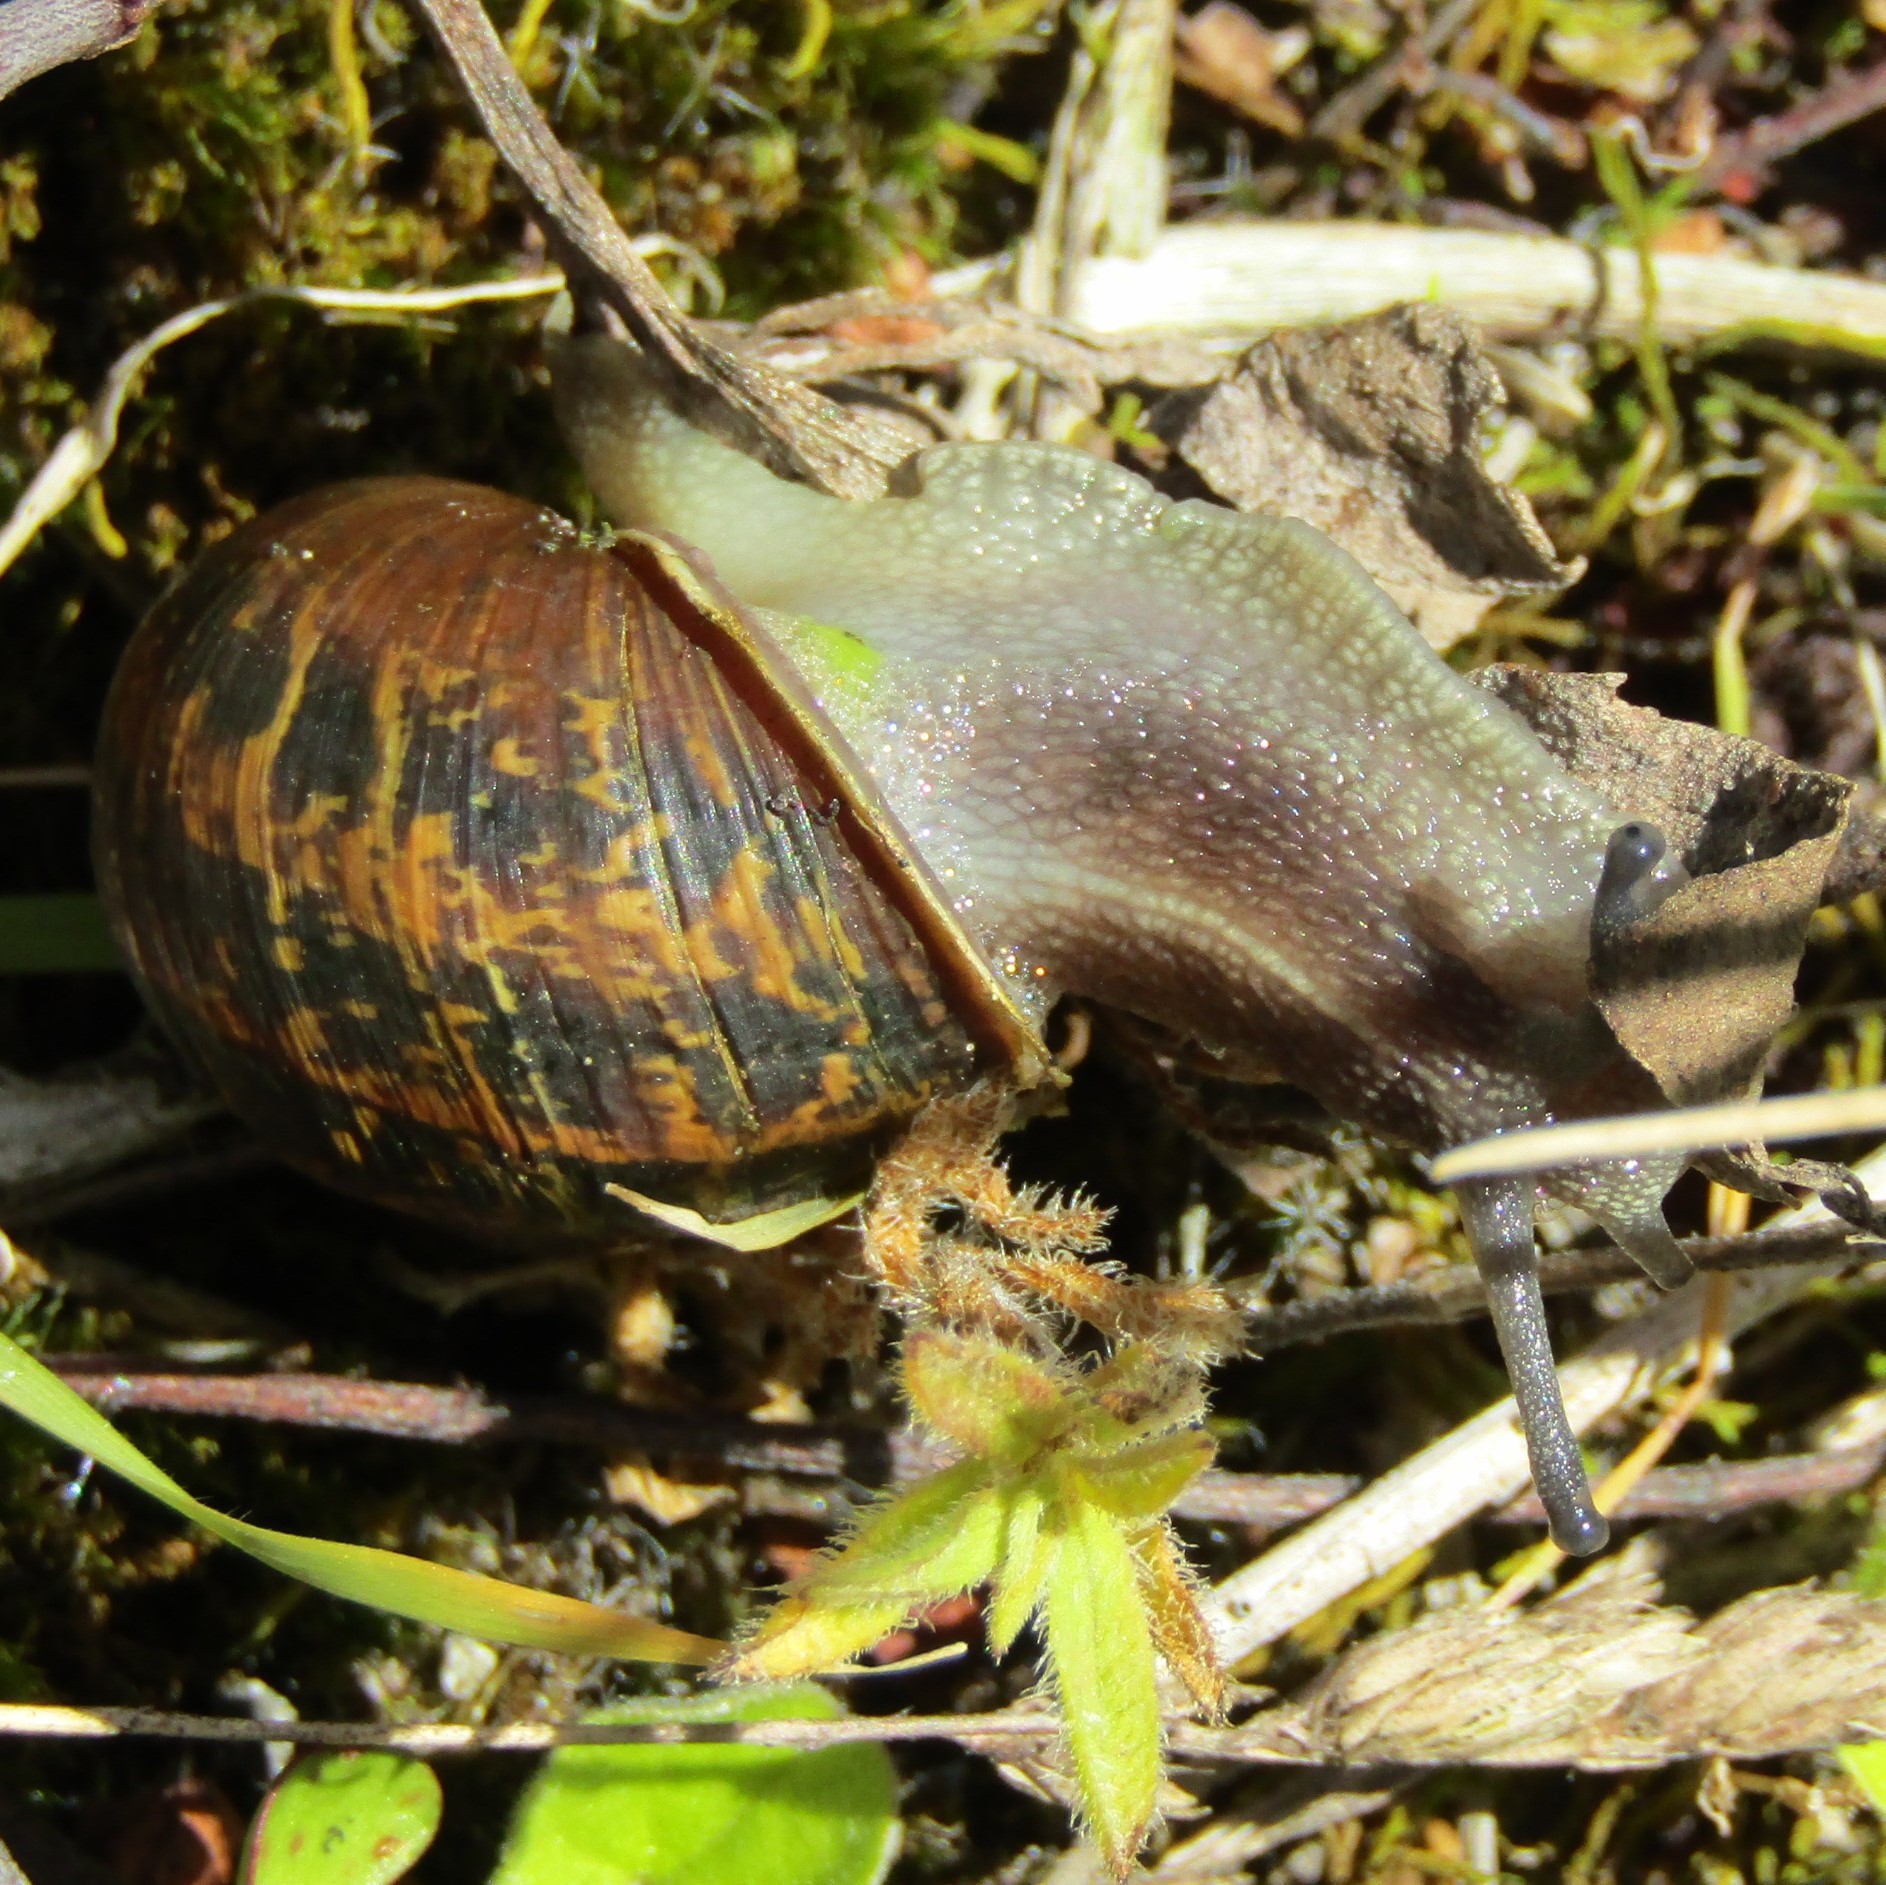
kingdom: Animalia
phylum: Mollusca
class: Gastropoda
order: Stylommatophora
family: Helicidae
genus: Cornu
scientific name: Cornu aspersum
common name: Brown garden snail
